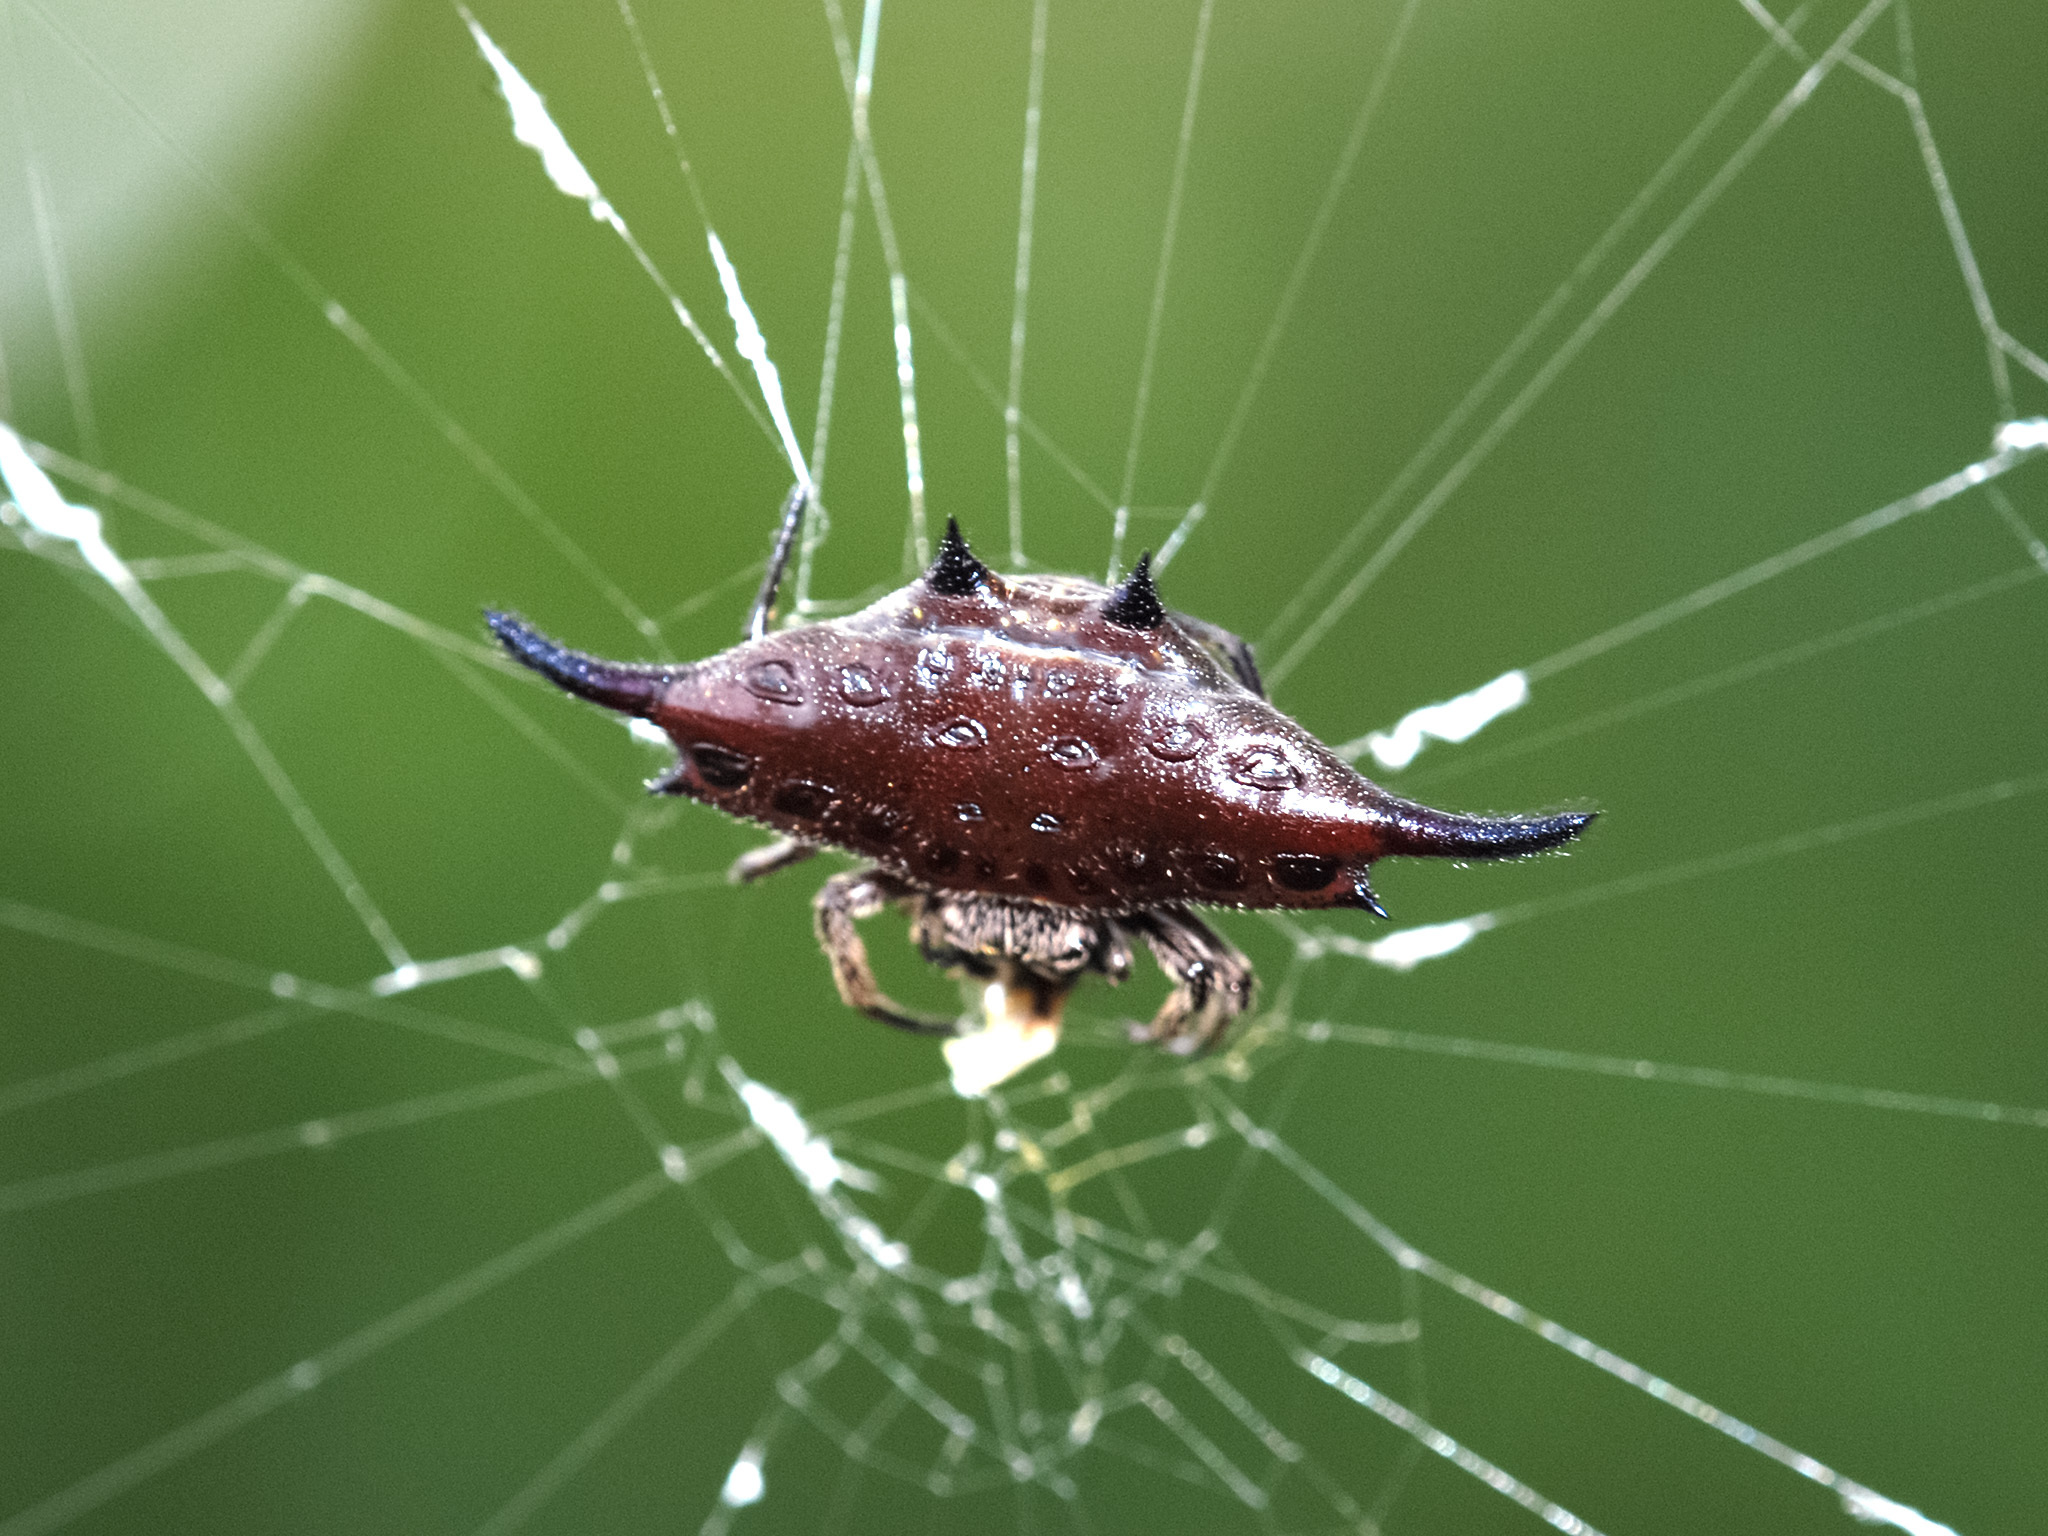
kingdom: Animalia
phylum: Arthropoda
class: Arachnida
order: Araneae
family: Araneidae
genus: Gasteracantha
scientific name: Gasteracantha diardi
